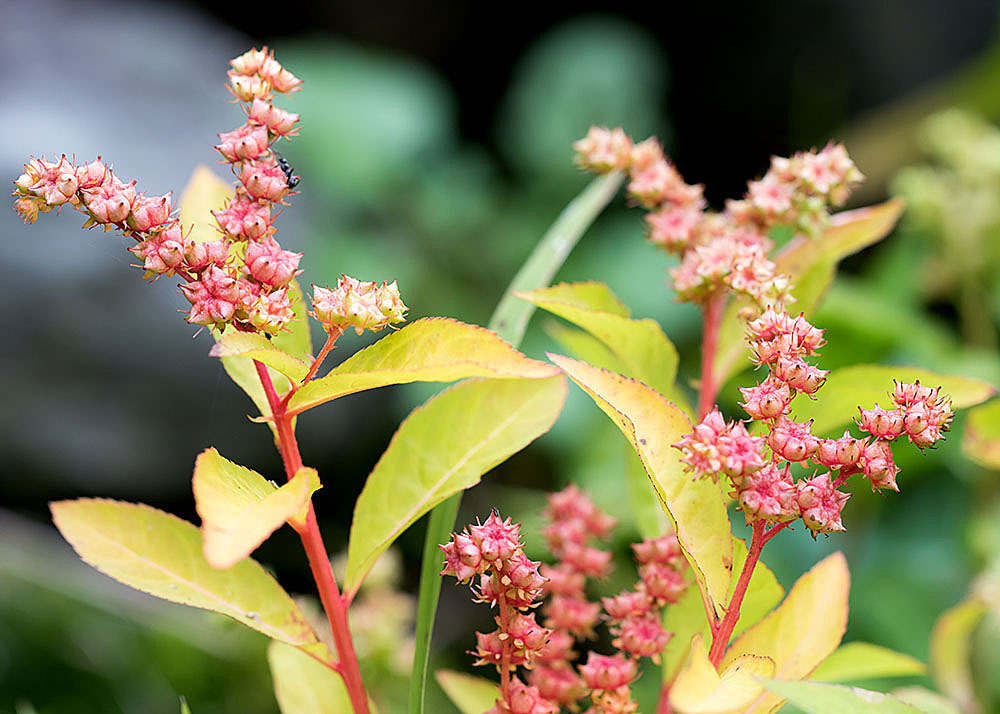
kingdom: Plantae
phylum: Tracheophyta
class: Magnoliopsida
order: Saxifragales
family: Penthoraceae
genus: Penthorum
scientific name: Penthorum sedoides
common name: Ditch stonecrop
